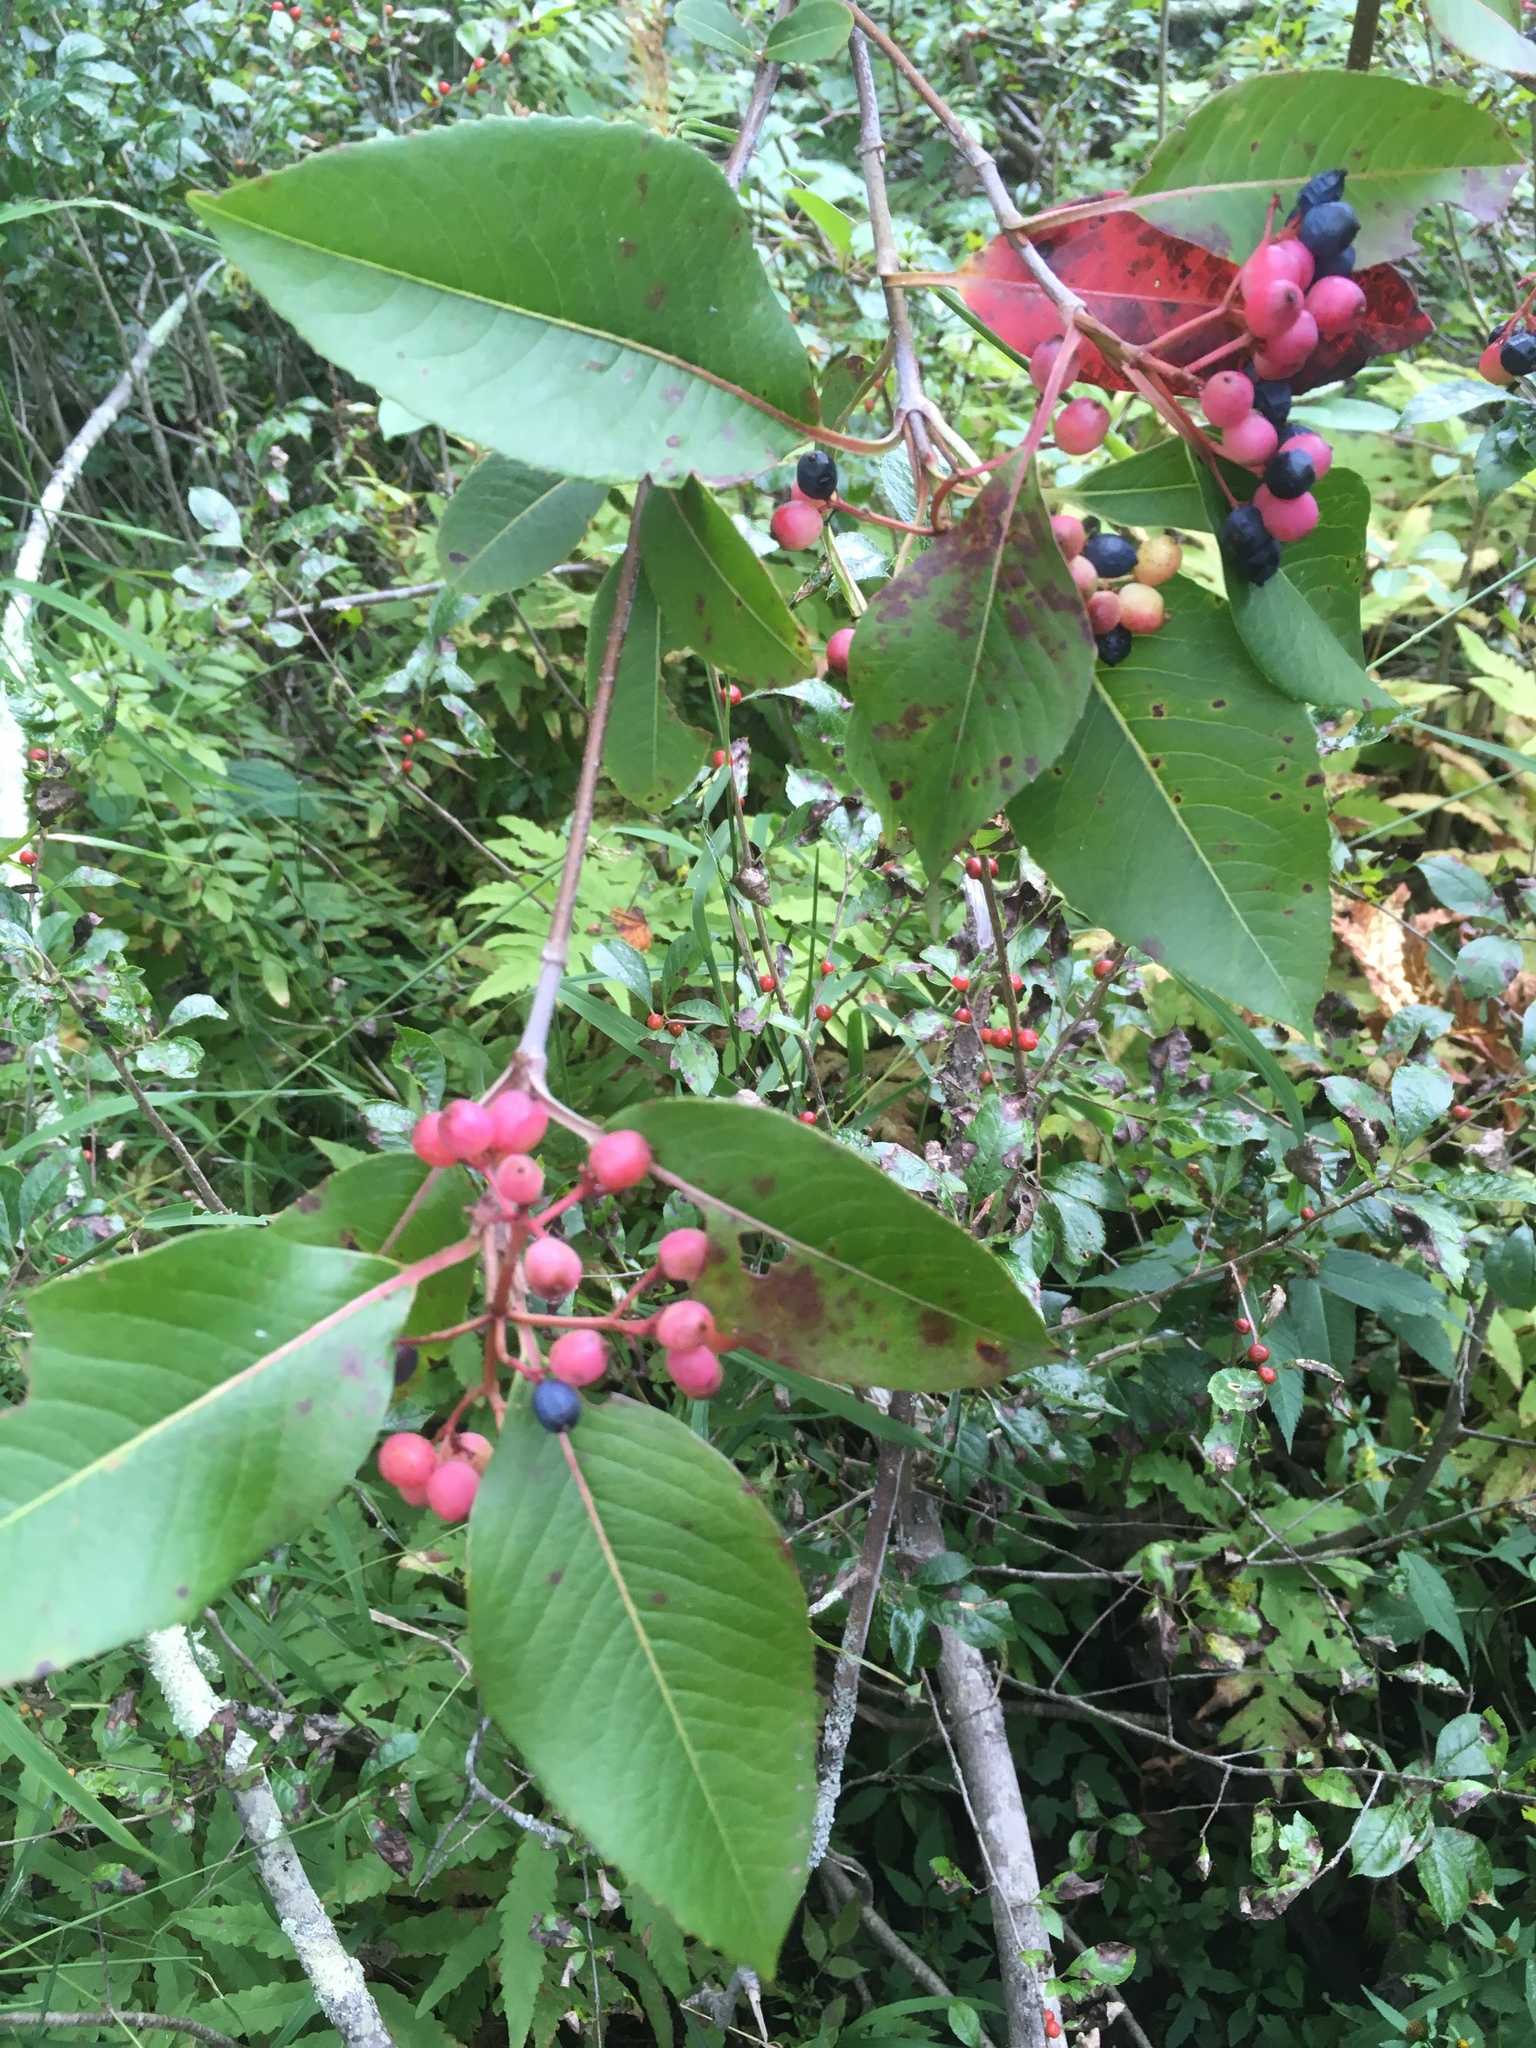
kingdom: Plantae
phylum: Tracheophyta
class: Magnoliopsida
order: Dipsacales
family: Viburnaceae
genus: Viburnum
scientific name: Viburnum cassinoides
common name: Swamp haw
